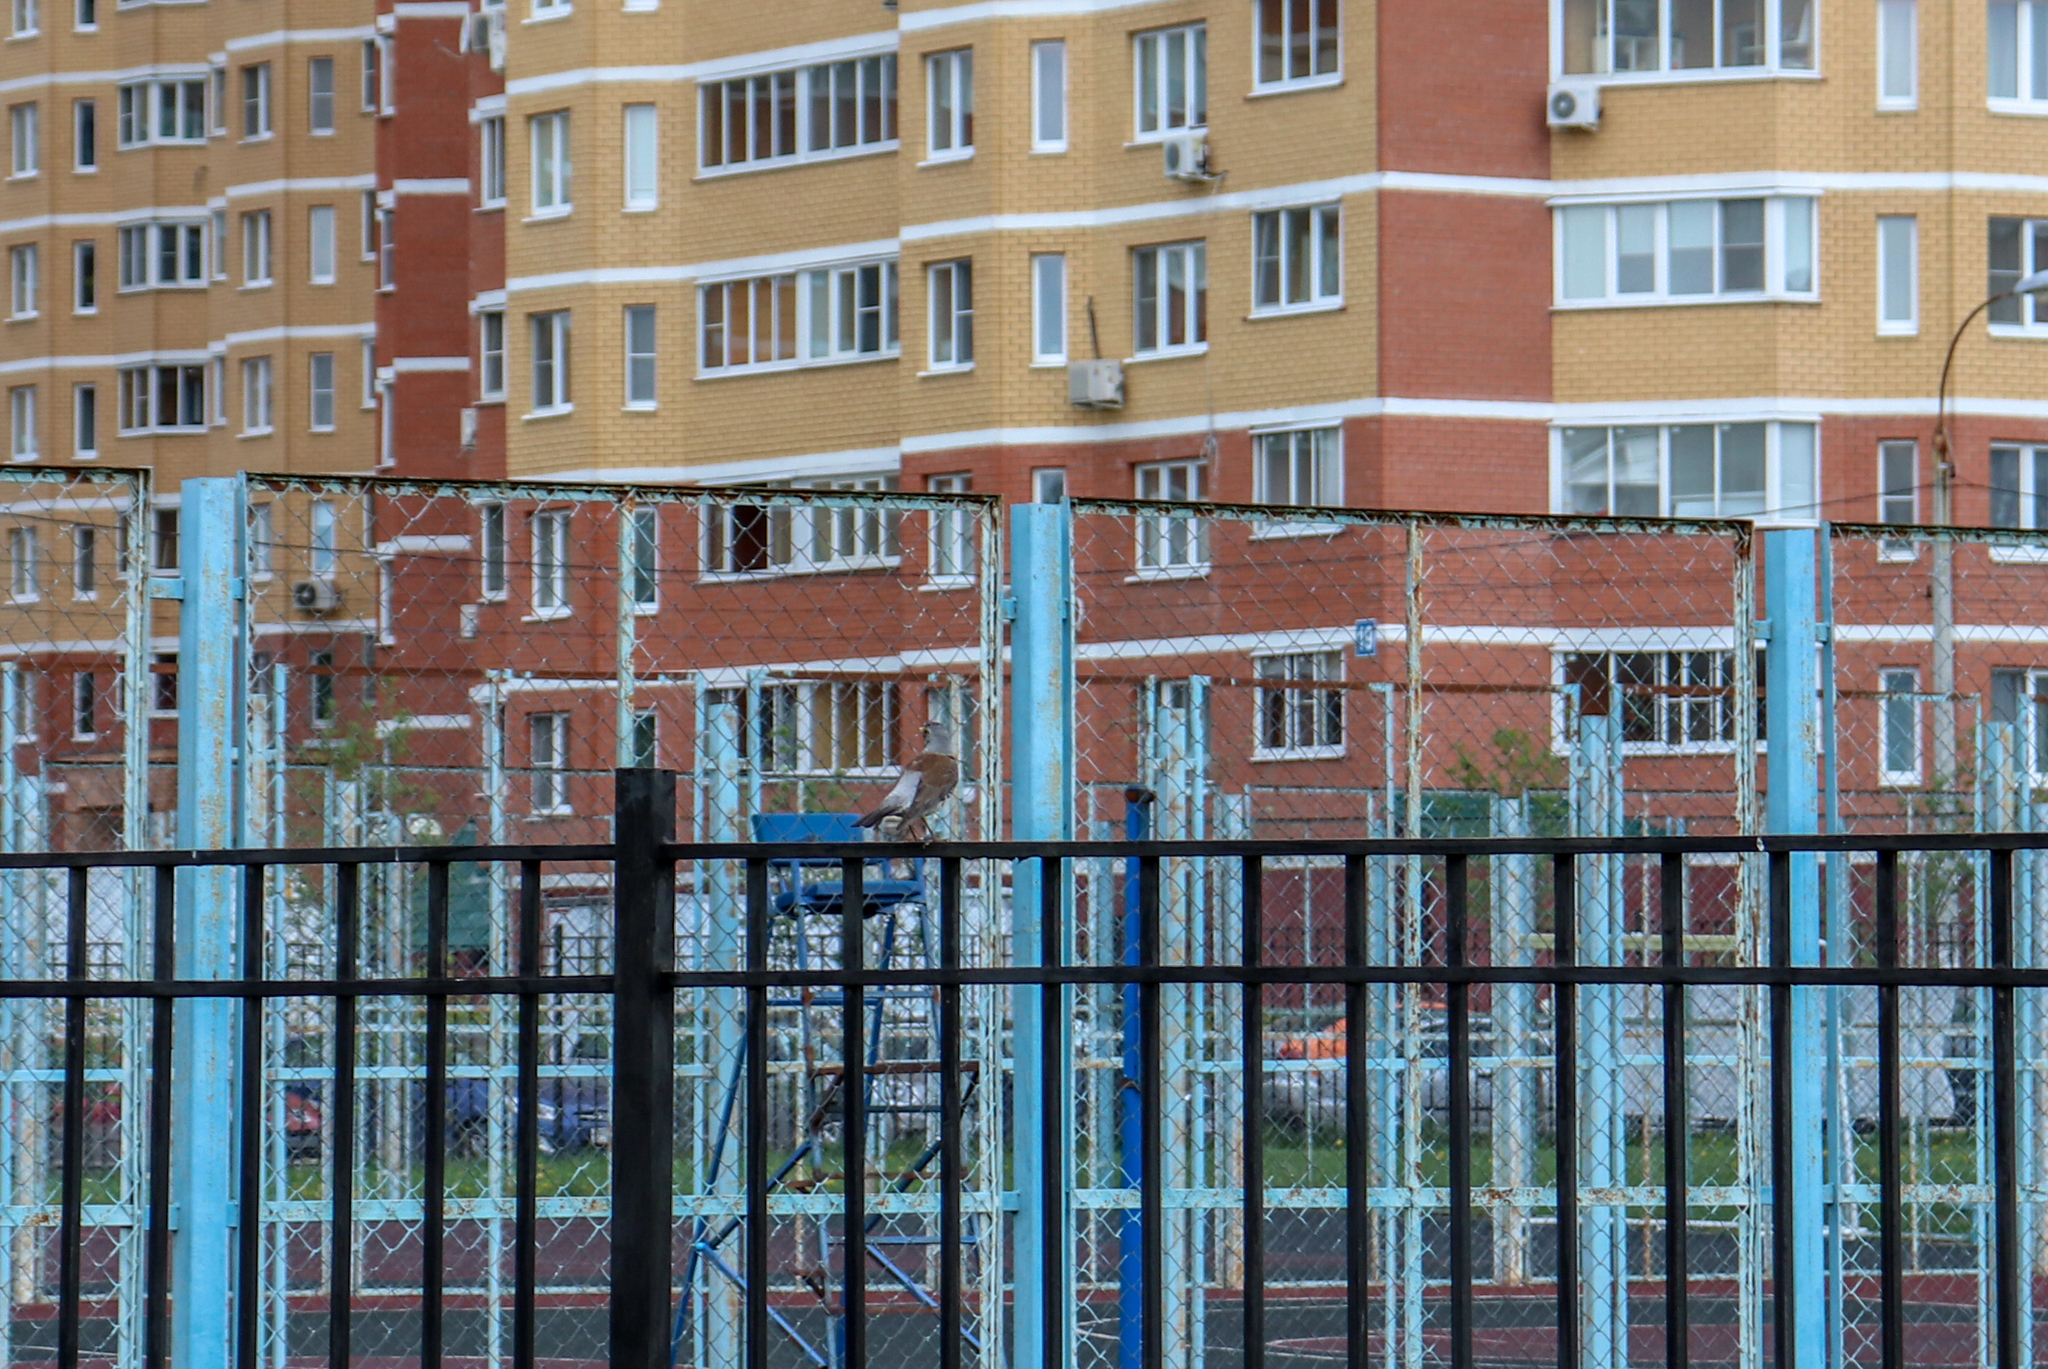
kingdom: Animalia
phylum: Chordata
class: Aves
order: Passeriformes
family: Turdidae
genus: Turdus
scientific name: Turdus pilaris
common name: Fieldfare
